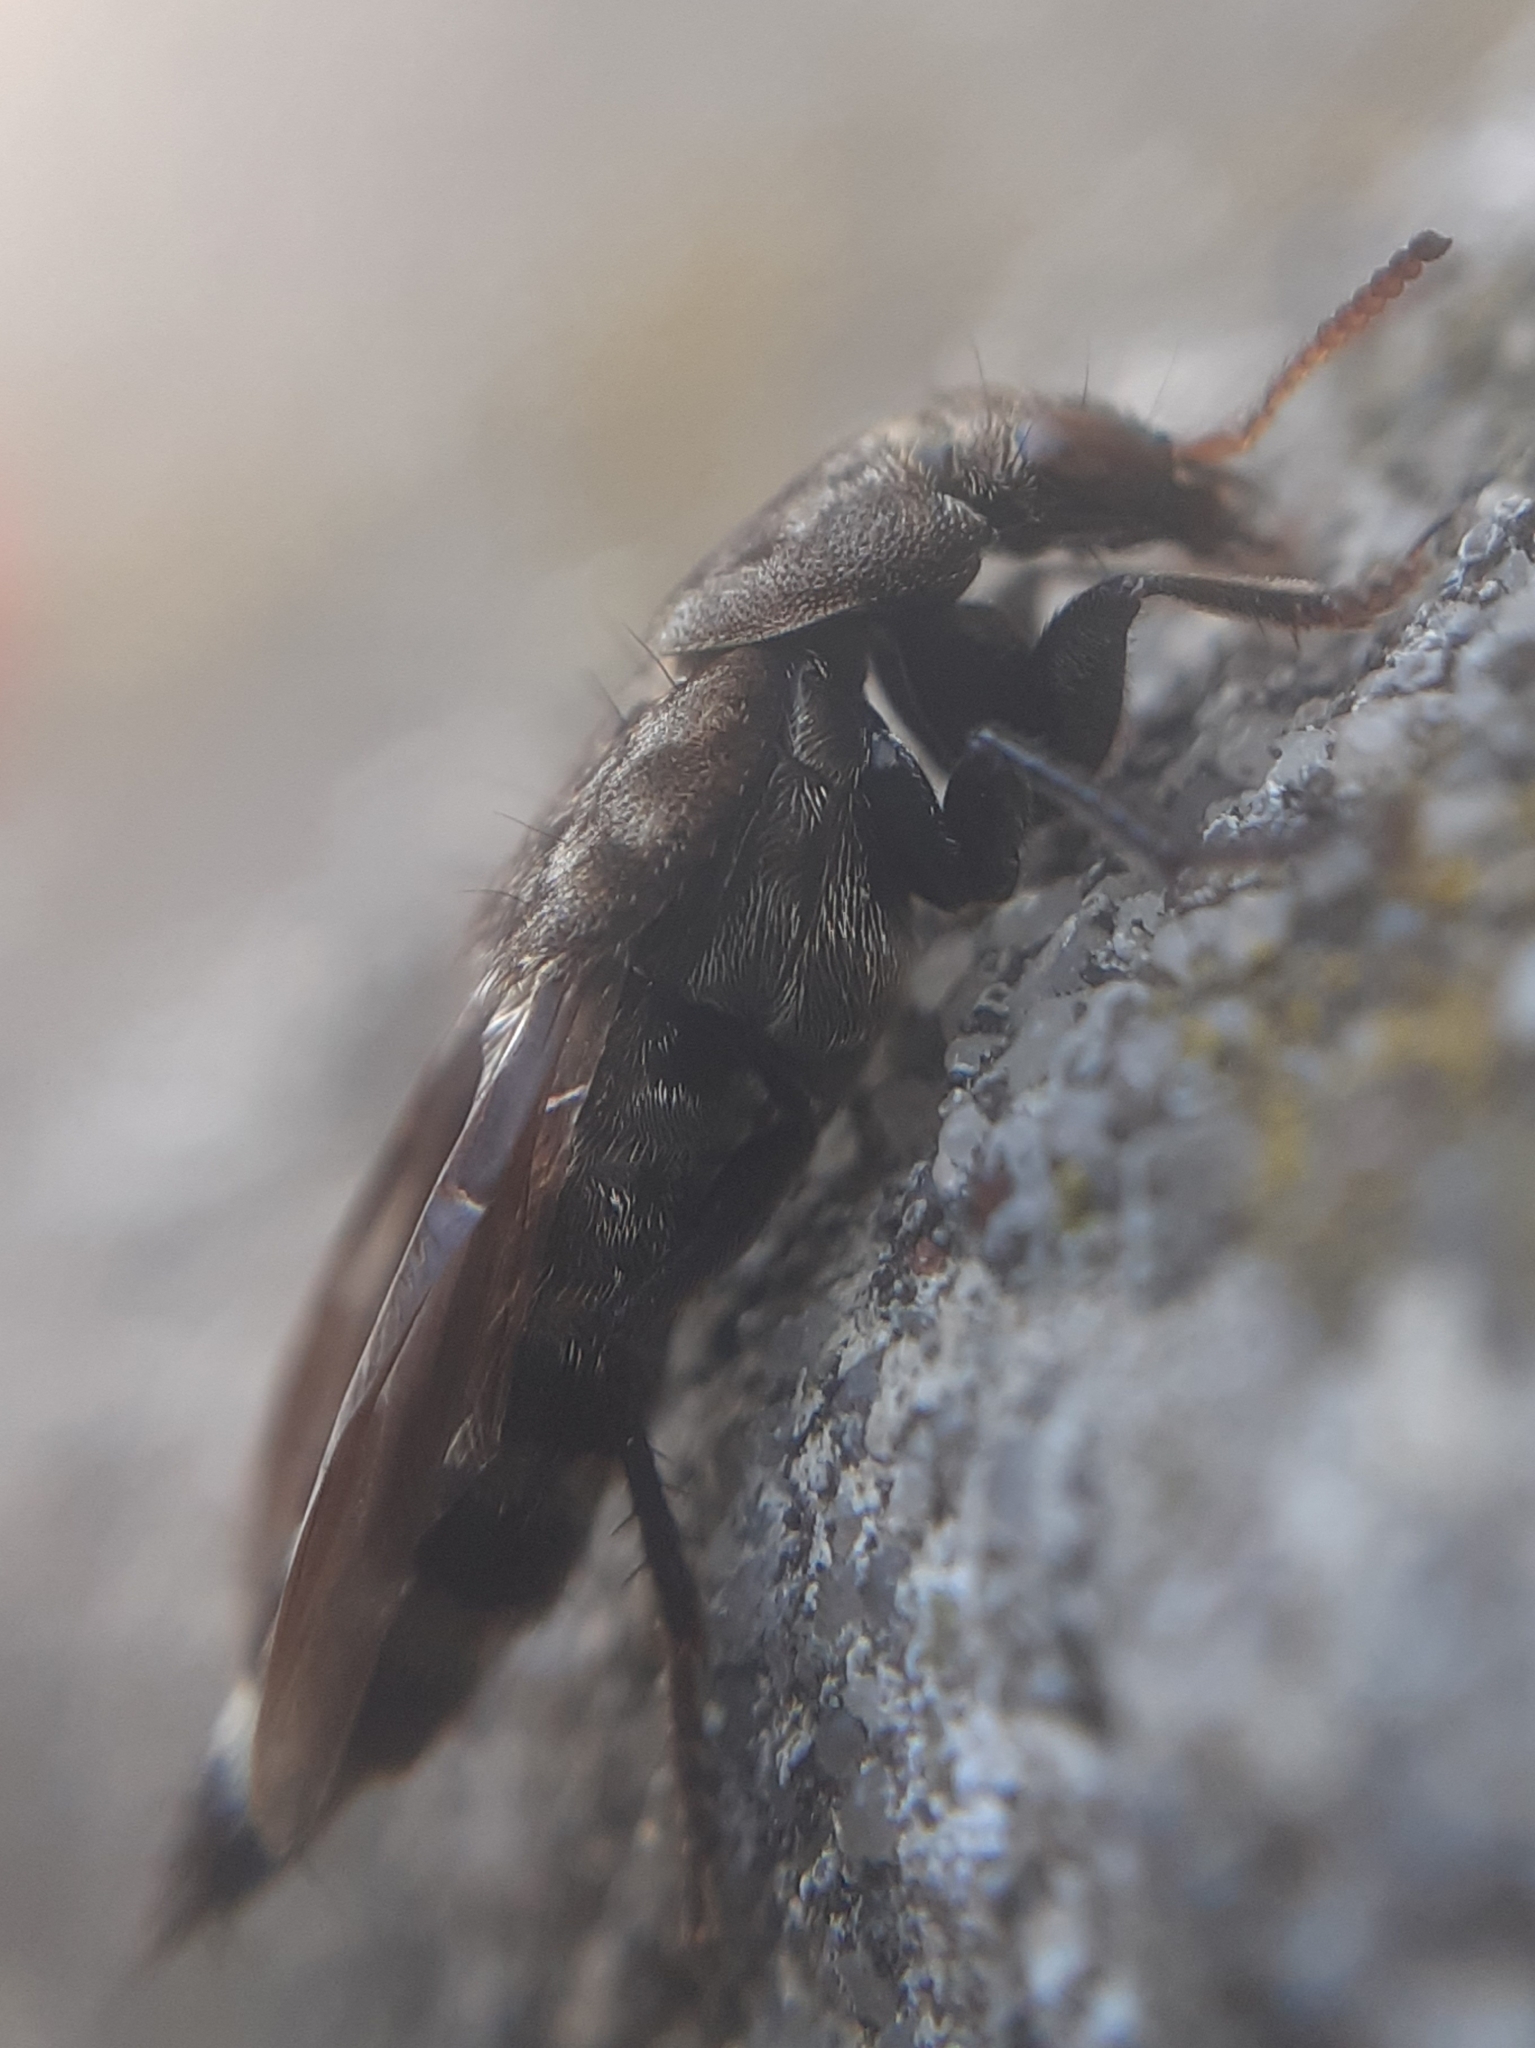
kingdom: Animalia
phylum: Arthropoda
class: Insecta
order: Coleoptera
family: Staphylinidae
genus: Ontholestes
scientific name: Ontholestes murinus
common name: Staph beetle
